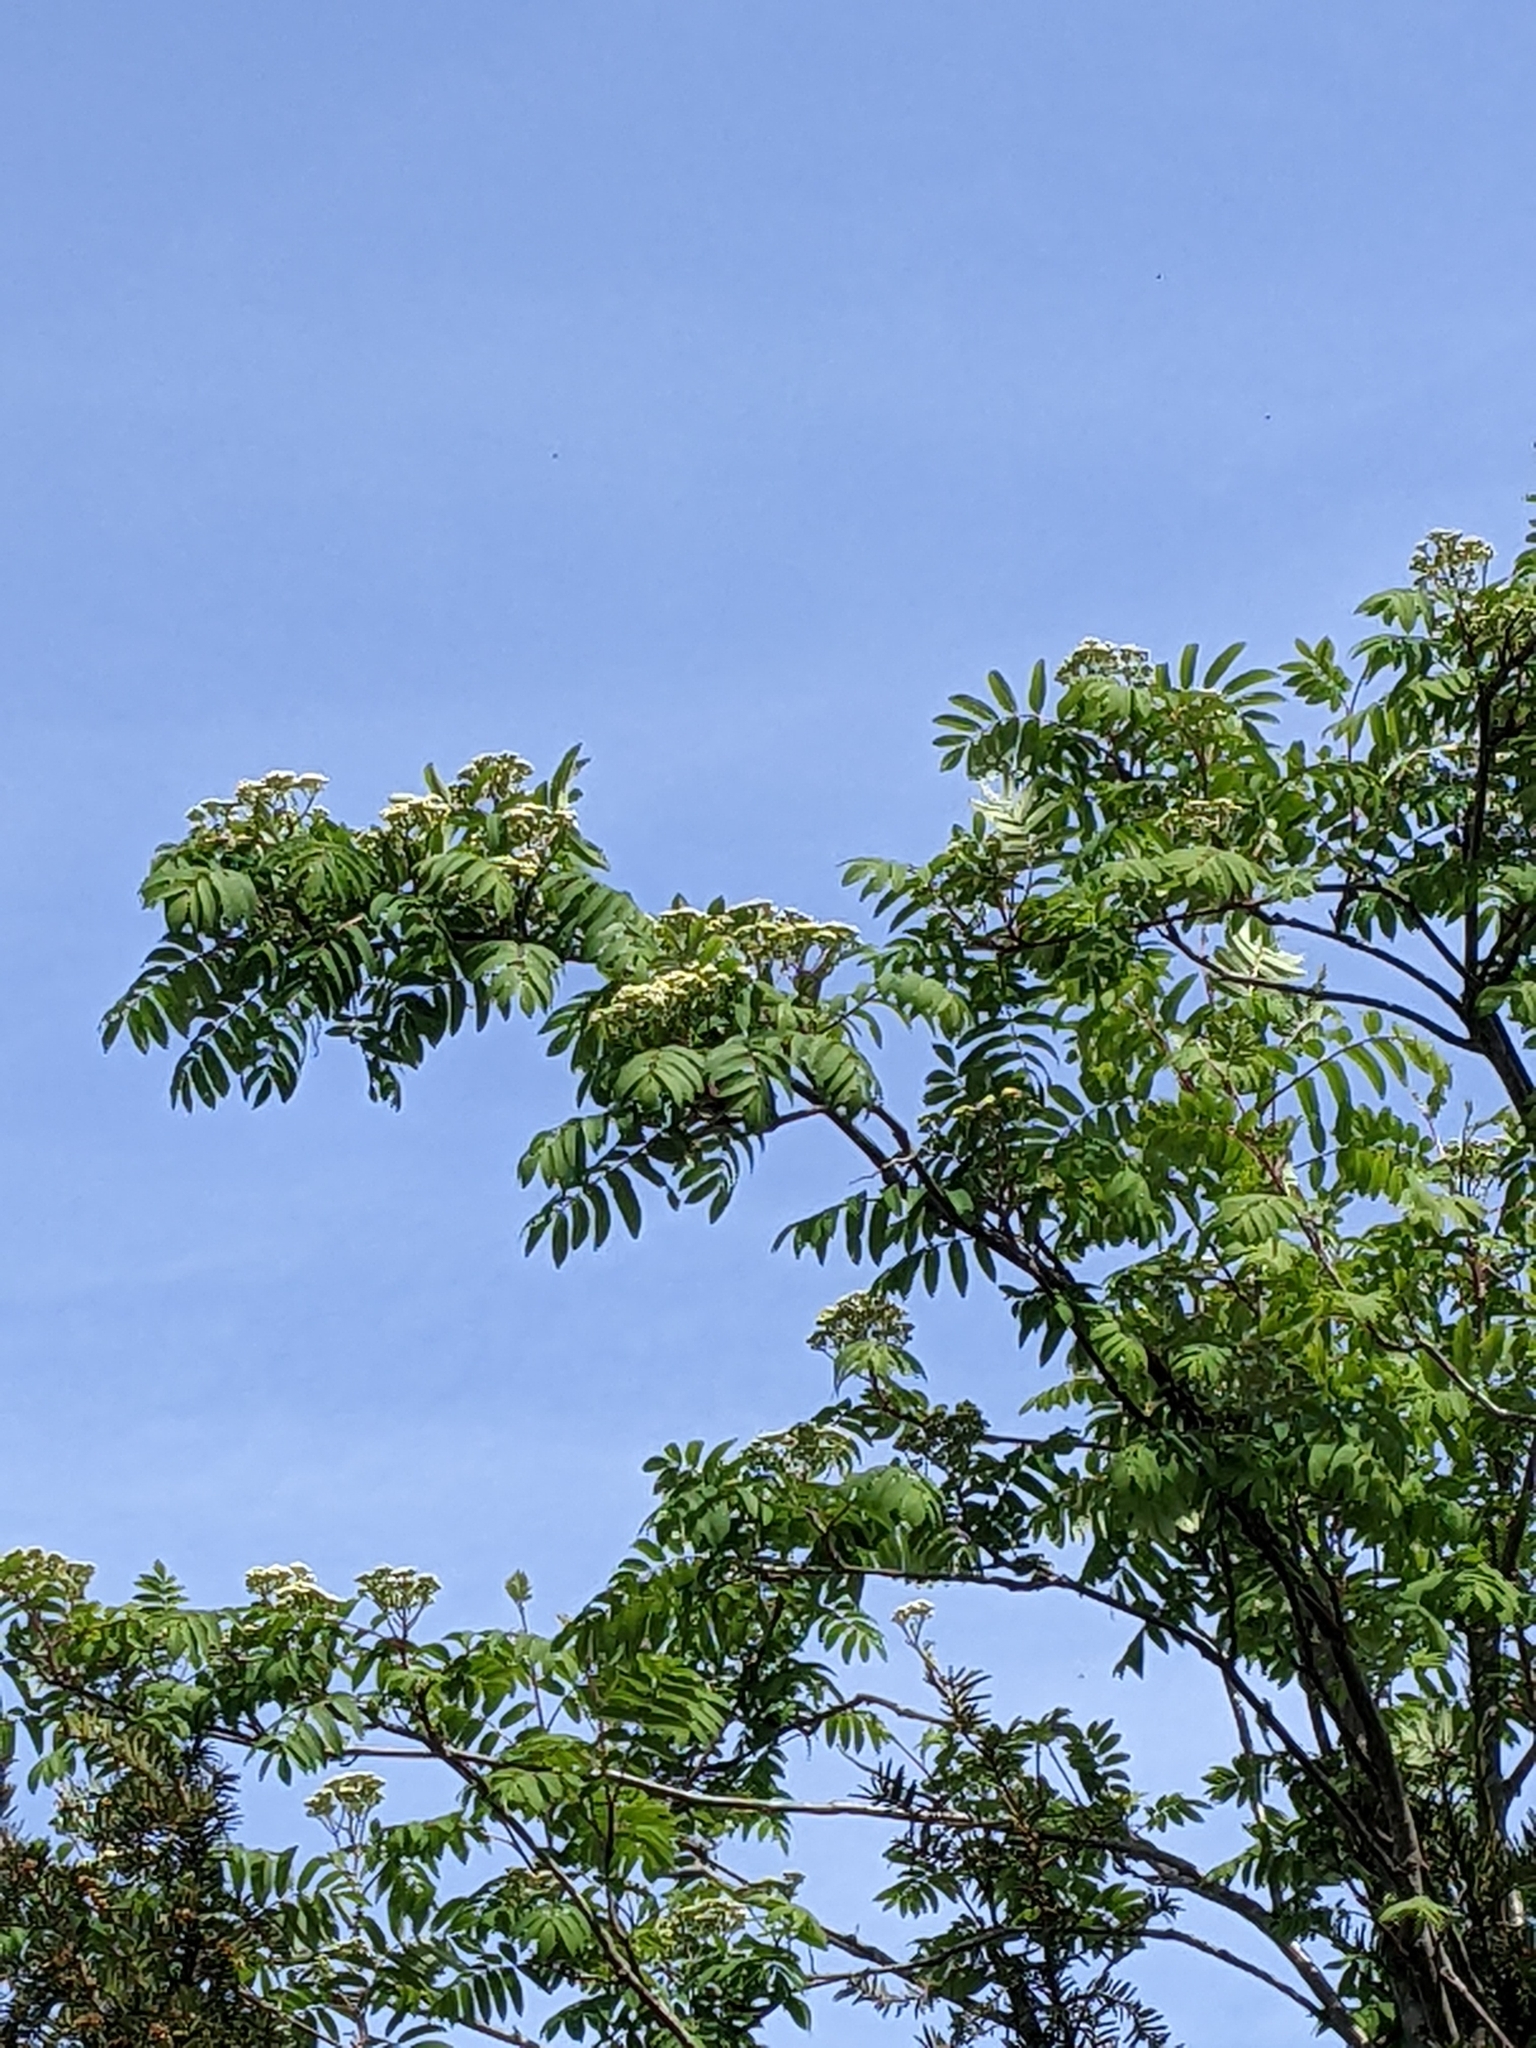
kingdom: Plantae
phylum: Tracheophyta
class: Magnoliopsida
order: Rosales
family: Rosaceae
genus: Sorbus
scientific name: Sorbus aucuparia
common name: Rowan
